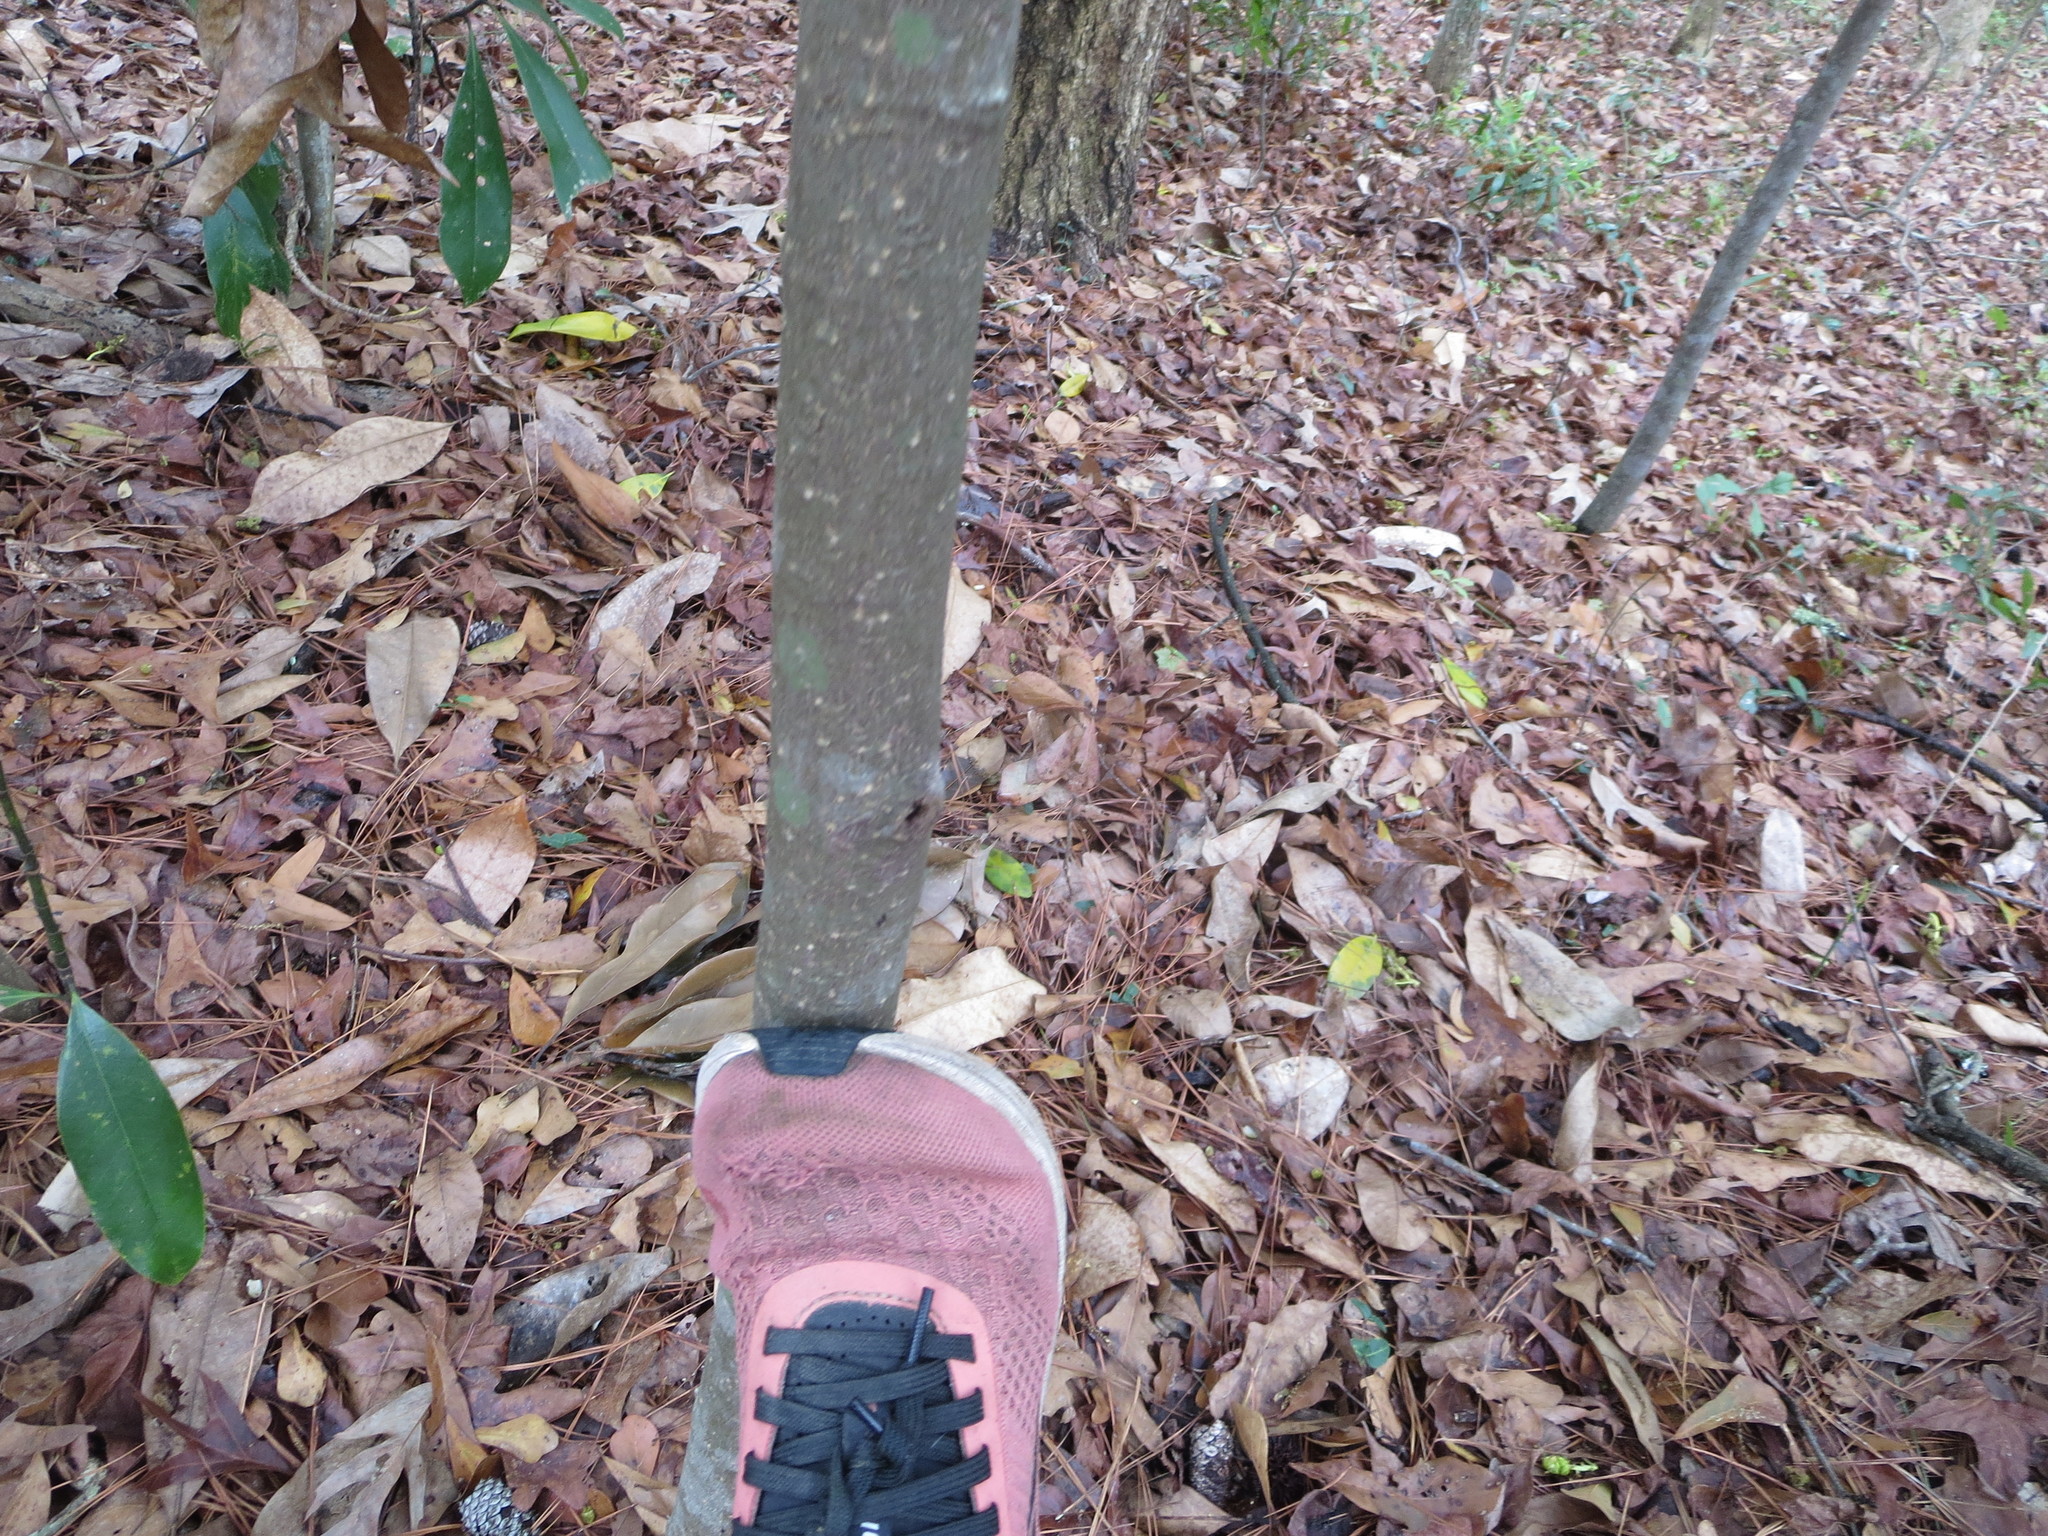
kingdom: Plantae
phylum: Tracheophyta
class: Magnoliopsida
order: Magnoliales
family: Magnoliaceae
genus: Magnolia
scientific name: Magnolia grandiflora
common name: Southern magnolia
